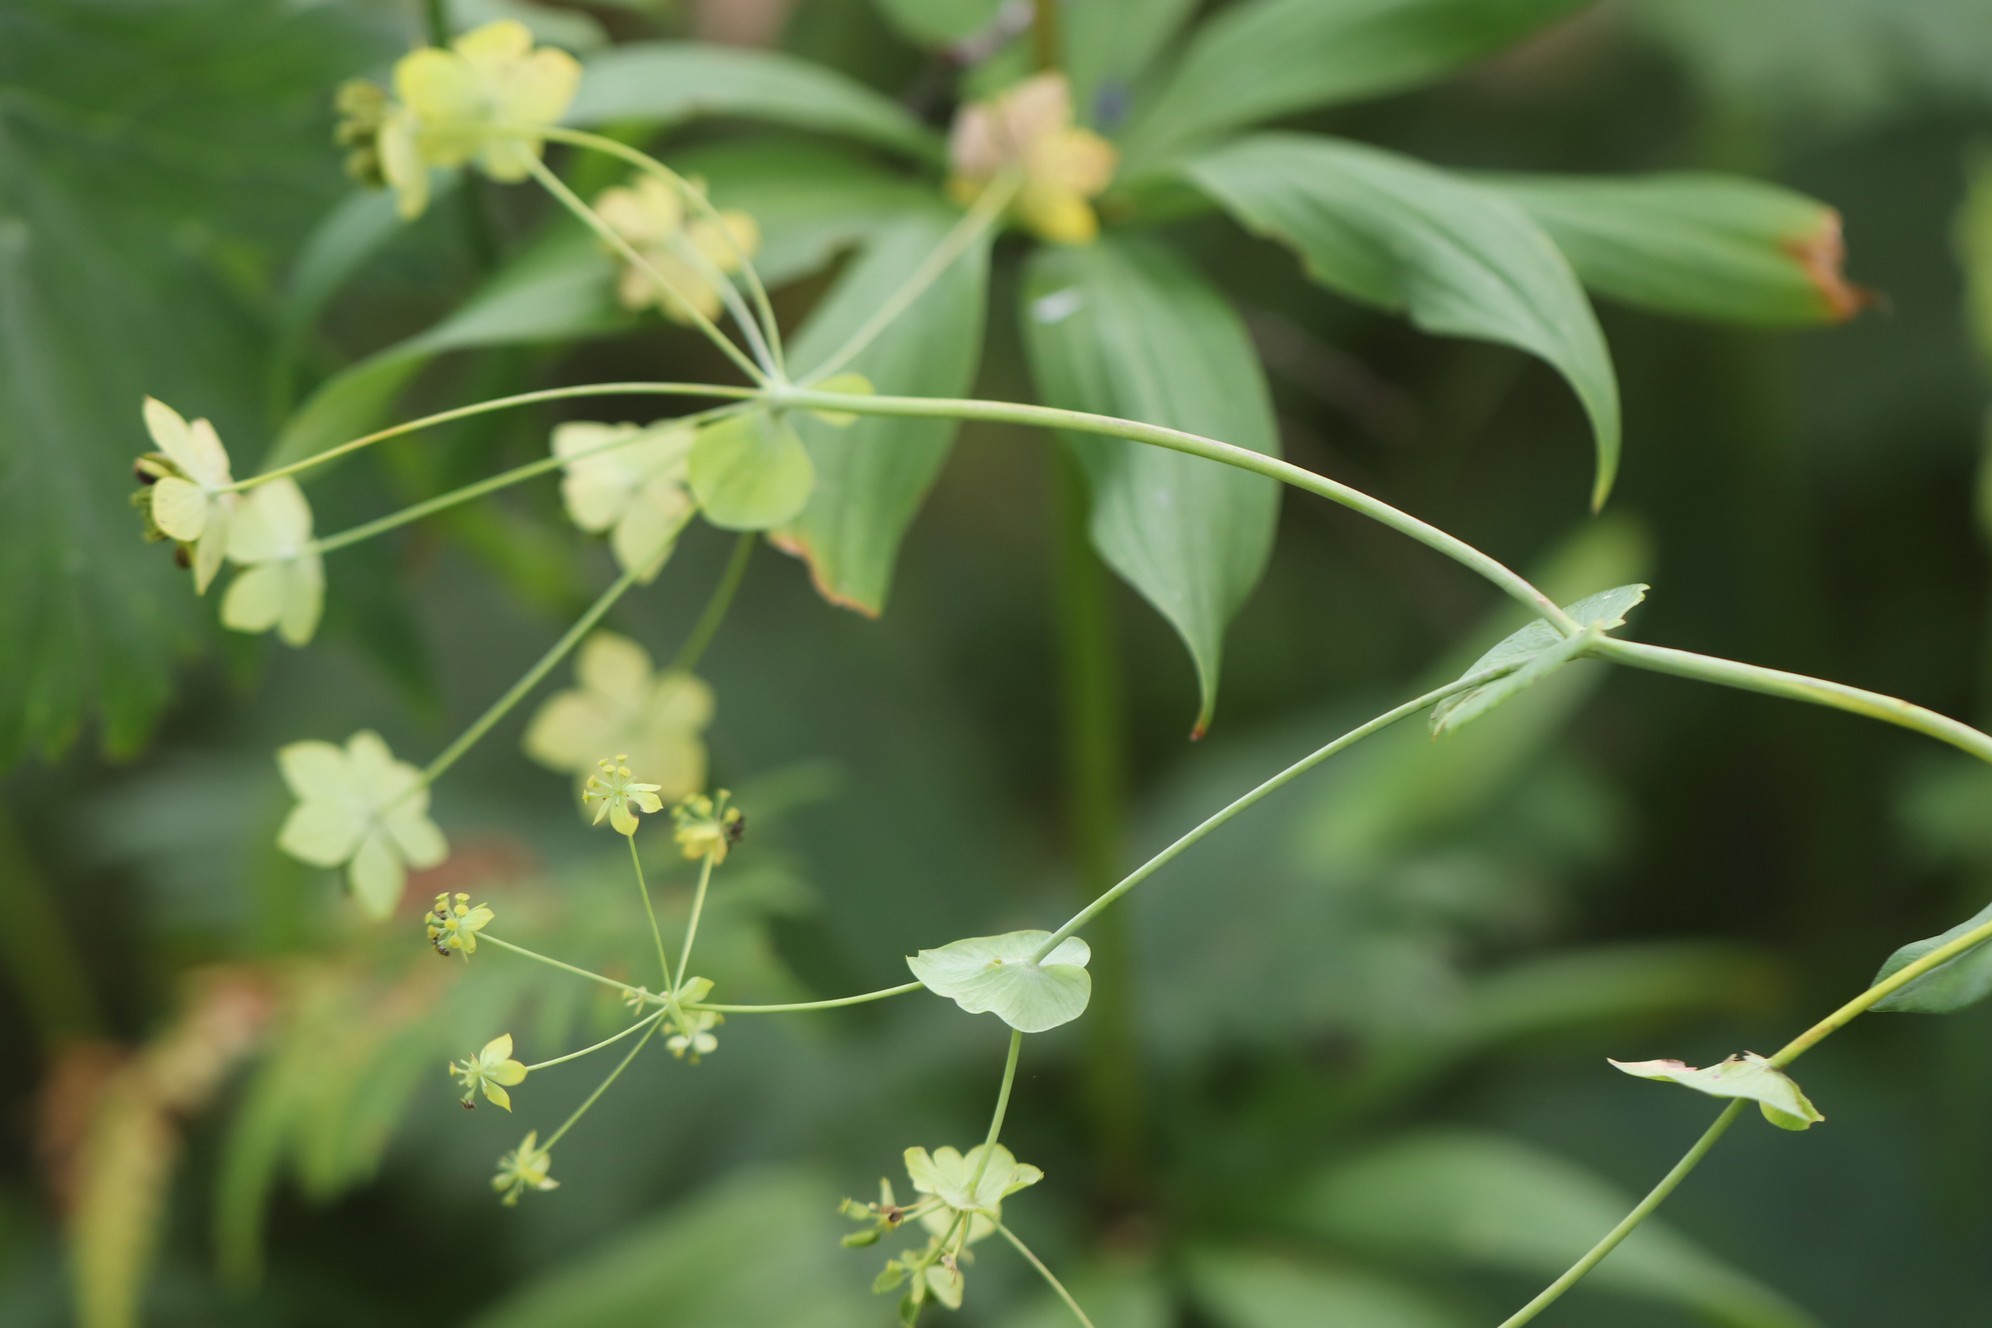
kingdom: Plantae
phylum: Tracheophyta
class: Magnoliopsida
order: Apiales
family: Apiaceae
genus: Bupleurum
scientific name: Bupleurum aureum
